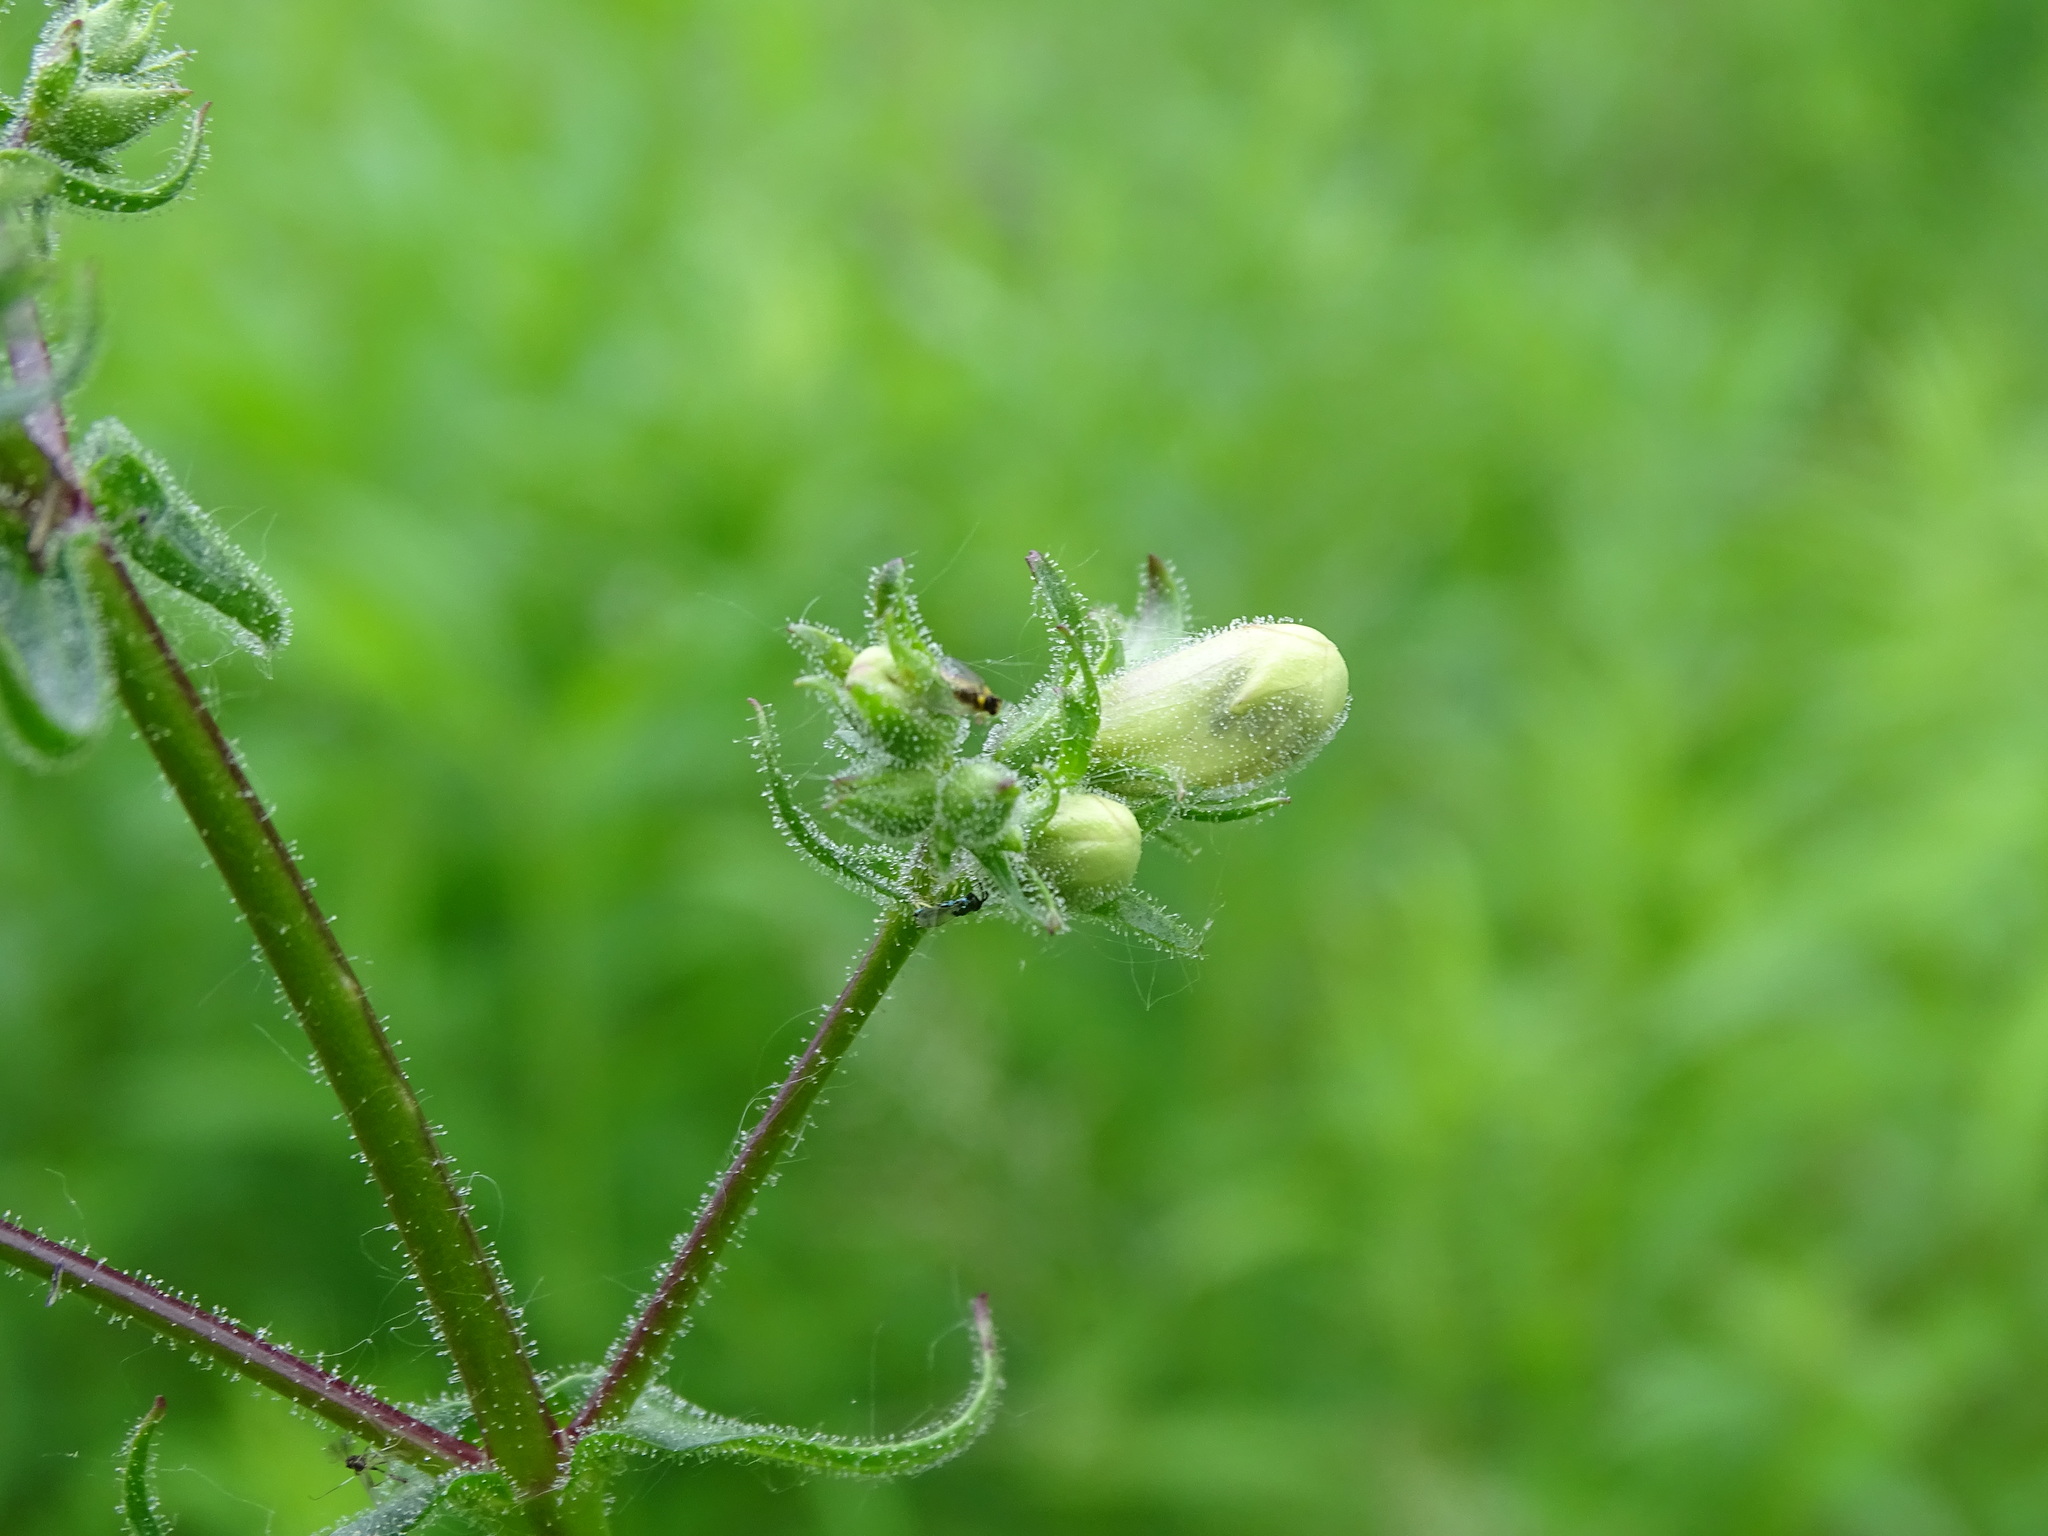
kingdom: Plantae
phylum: Tracheophyta
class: Magnoliopsida
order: Lamiales
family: Plantaginaceae
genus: Penstemon
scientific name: Penstemon digitalis
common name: Foxglove beardtongue
